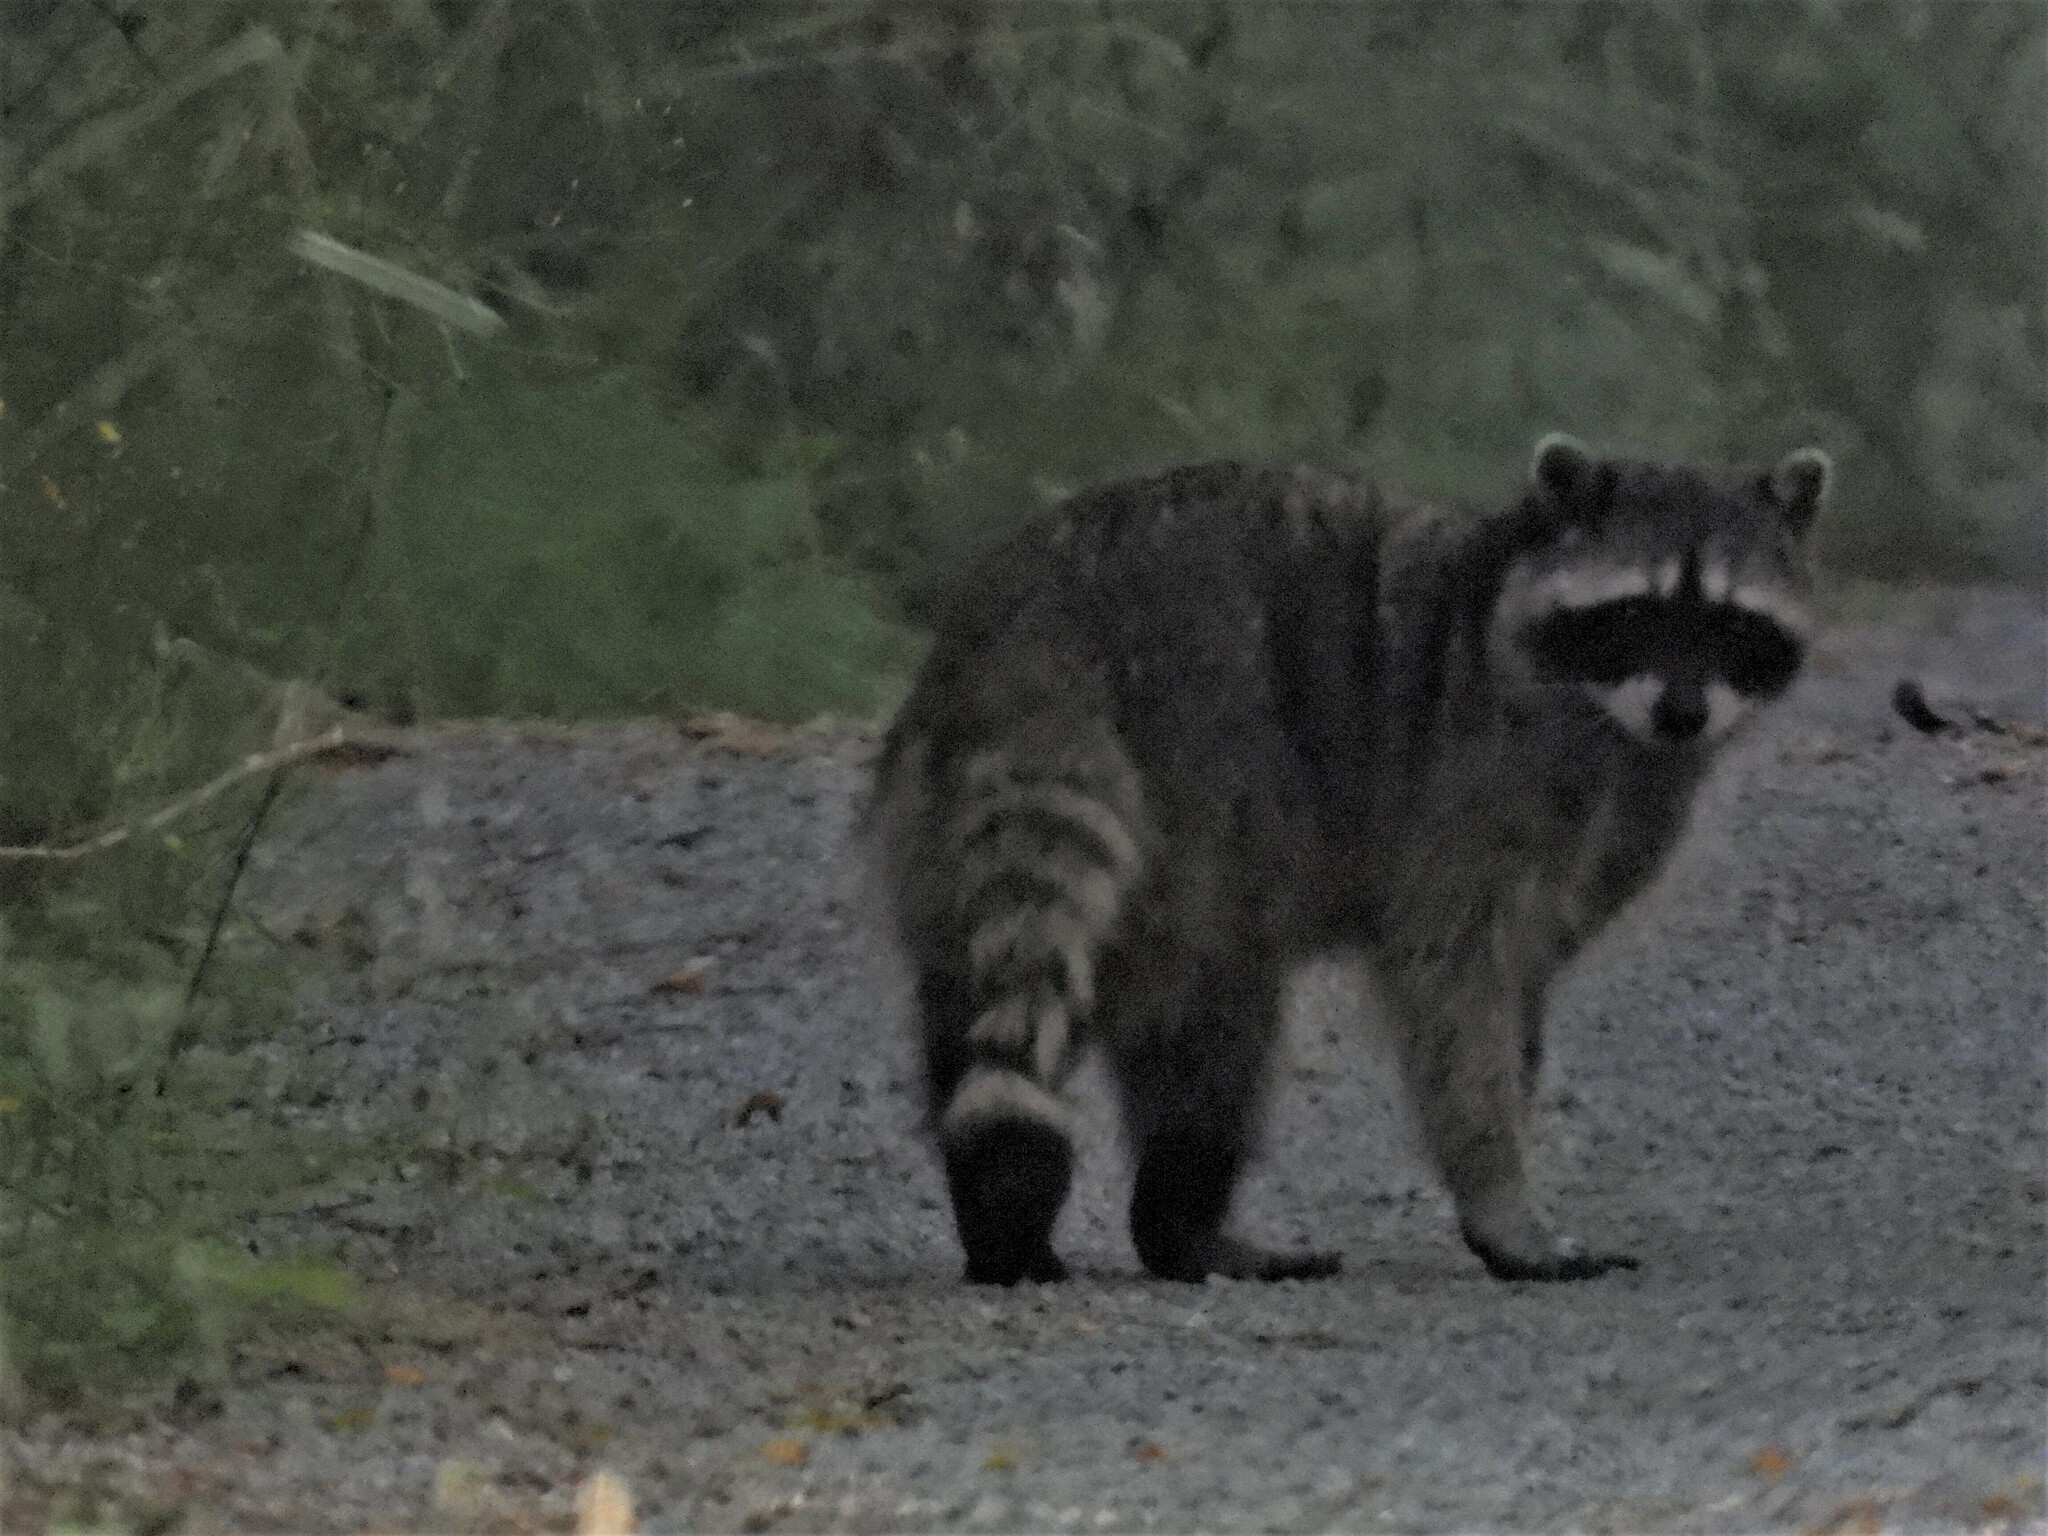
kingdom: Animalia
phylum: Chordata
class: Mammalia
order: Carnivora
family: Procyonidae
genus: Procyon
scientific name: Procyon lotor
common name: Raccoon
